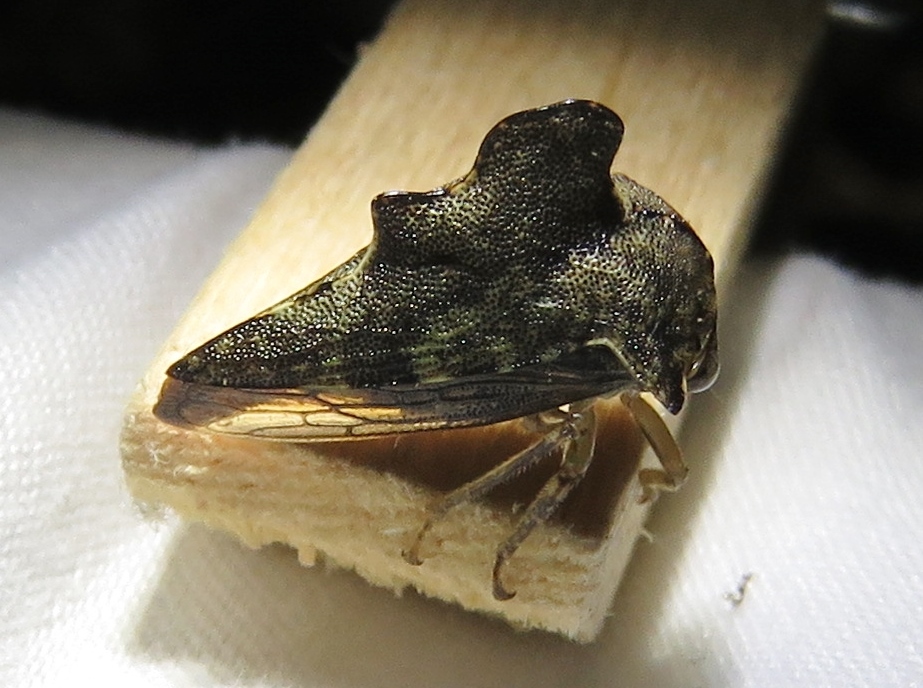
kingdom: Animalia
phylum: Arthropoda
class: Insecta
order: Hemiptera
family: Membracidae
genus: Heliria
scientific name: Heliria cristata
